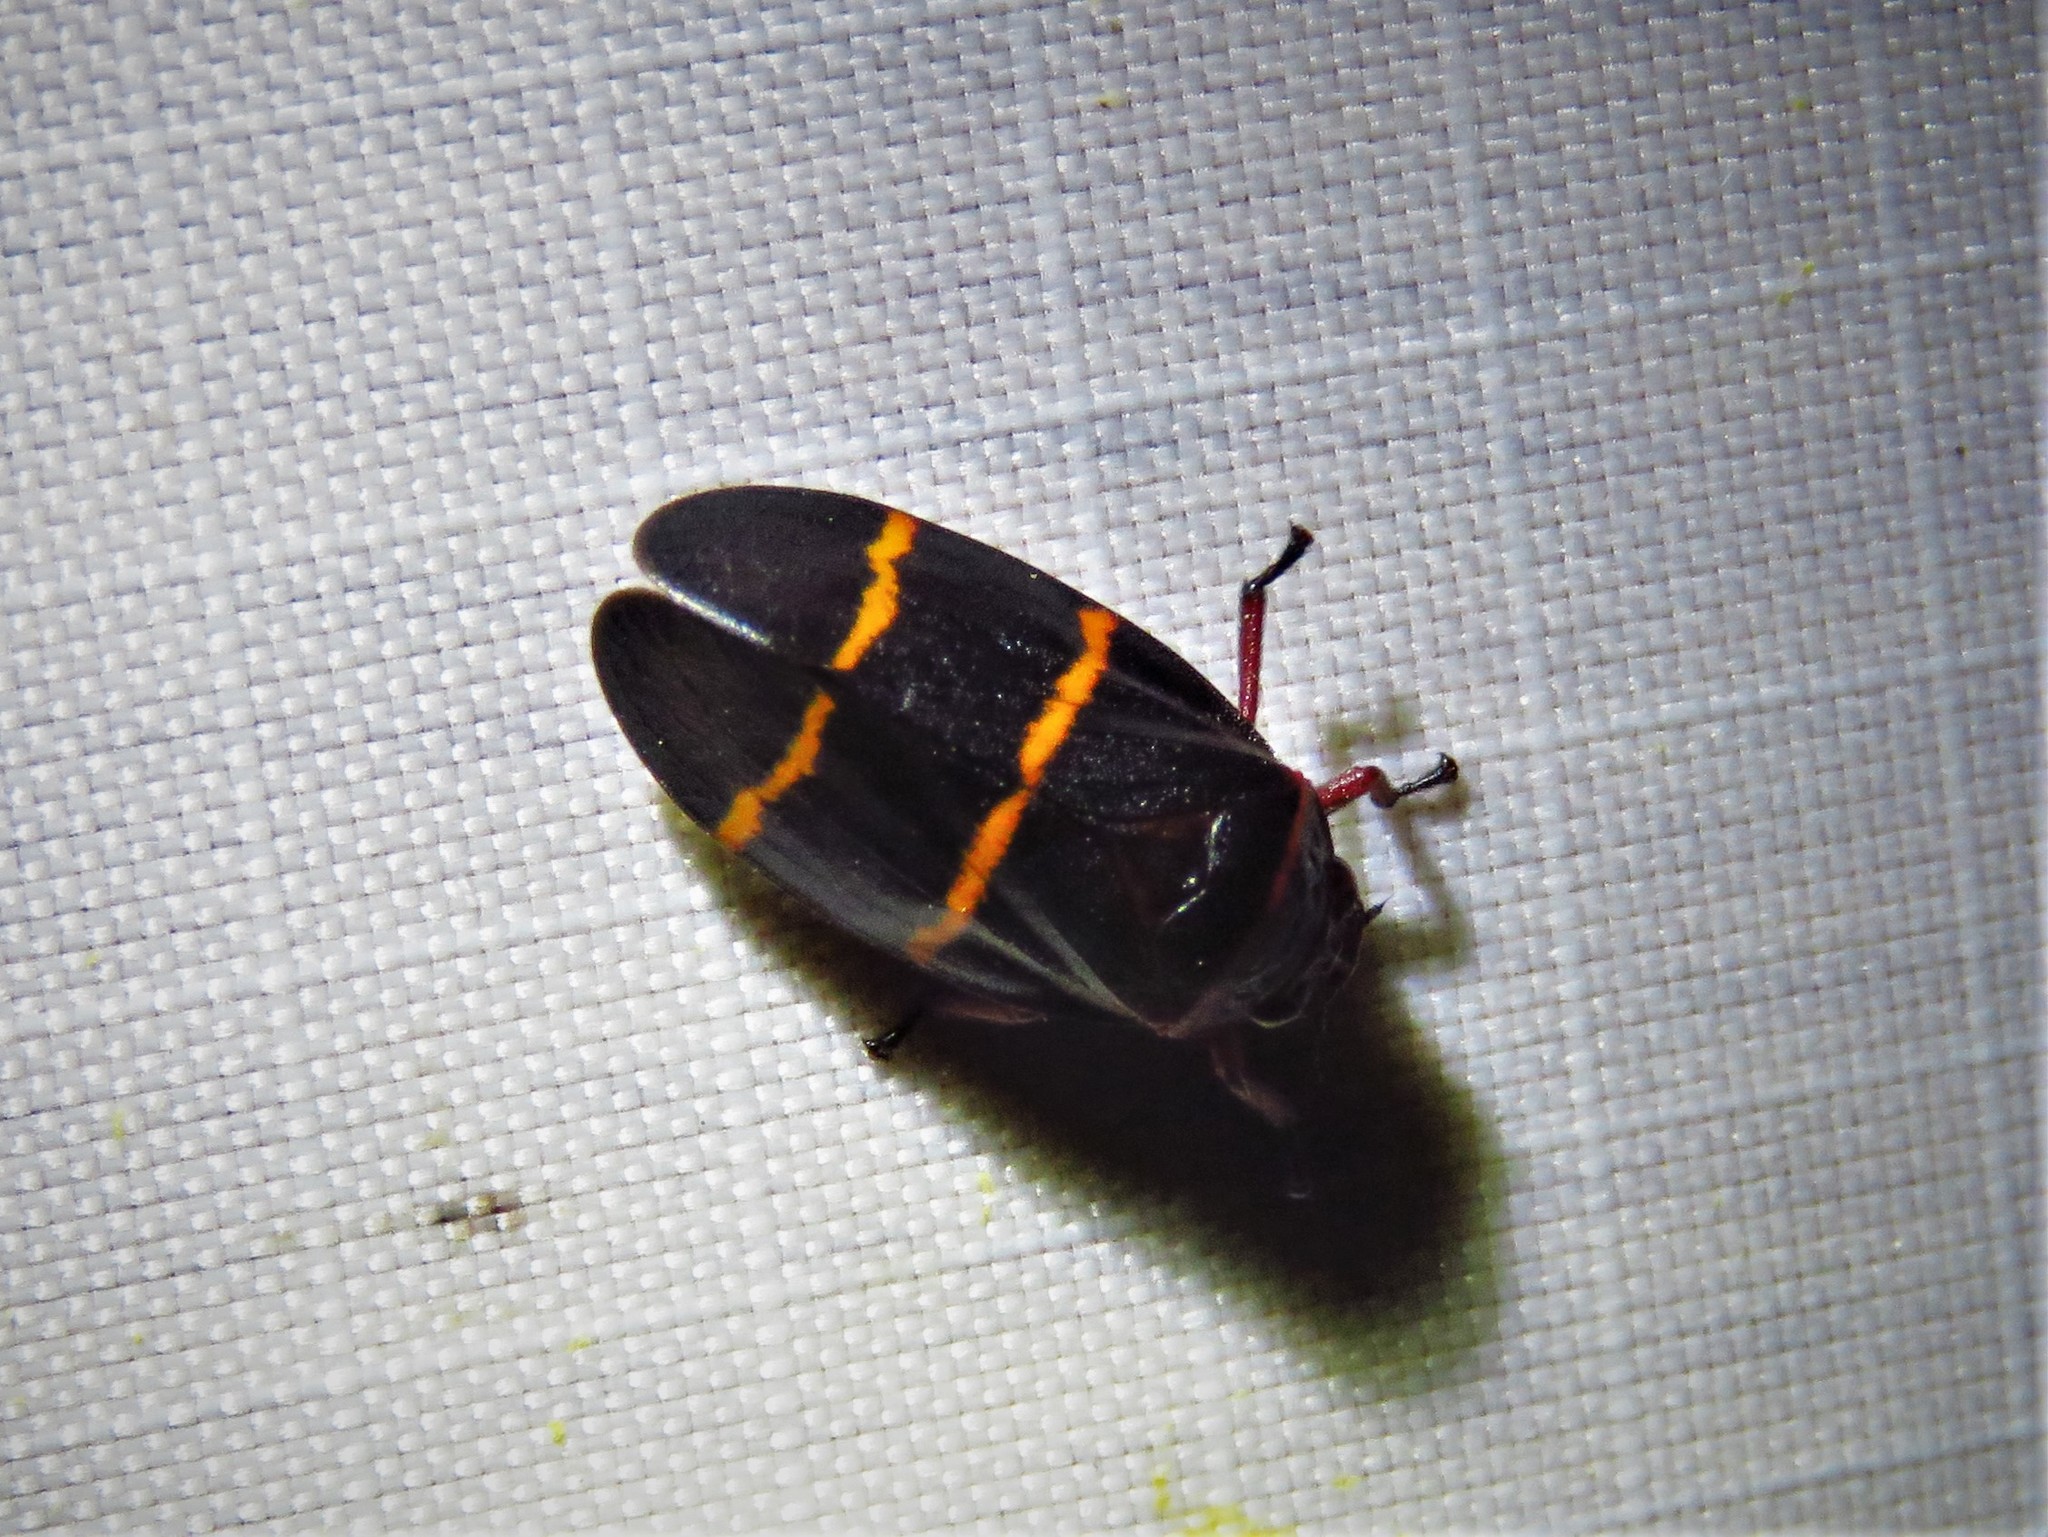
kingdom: Animalia
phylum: Arthropoda
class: Insecta
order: Hemiptera
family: Cercopidae
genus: Prosapia
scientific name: Prosapia bicincta
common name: Twolined spittlebug
